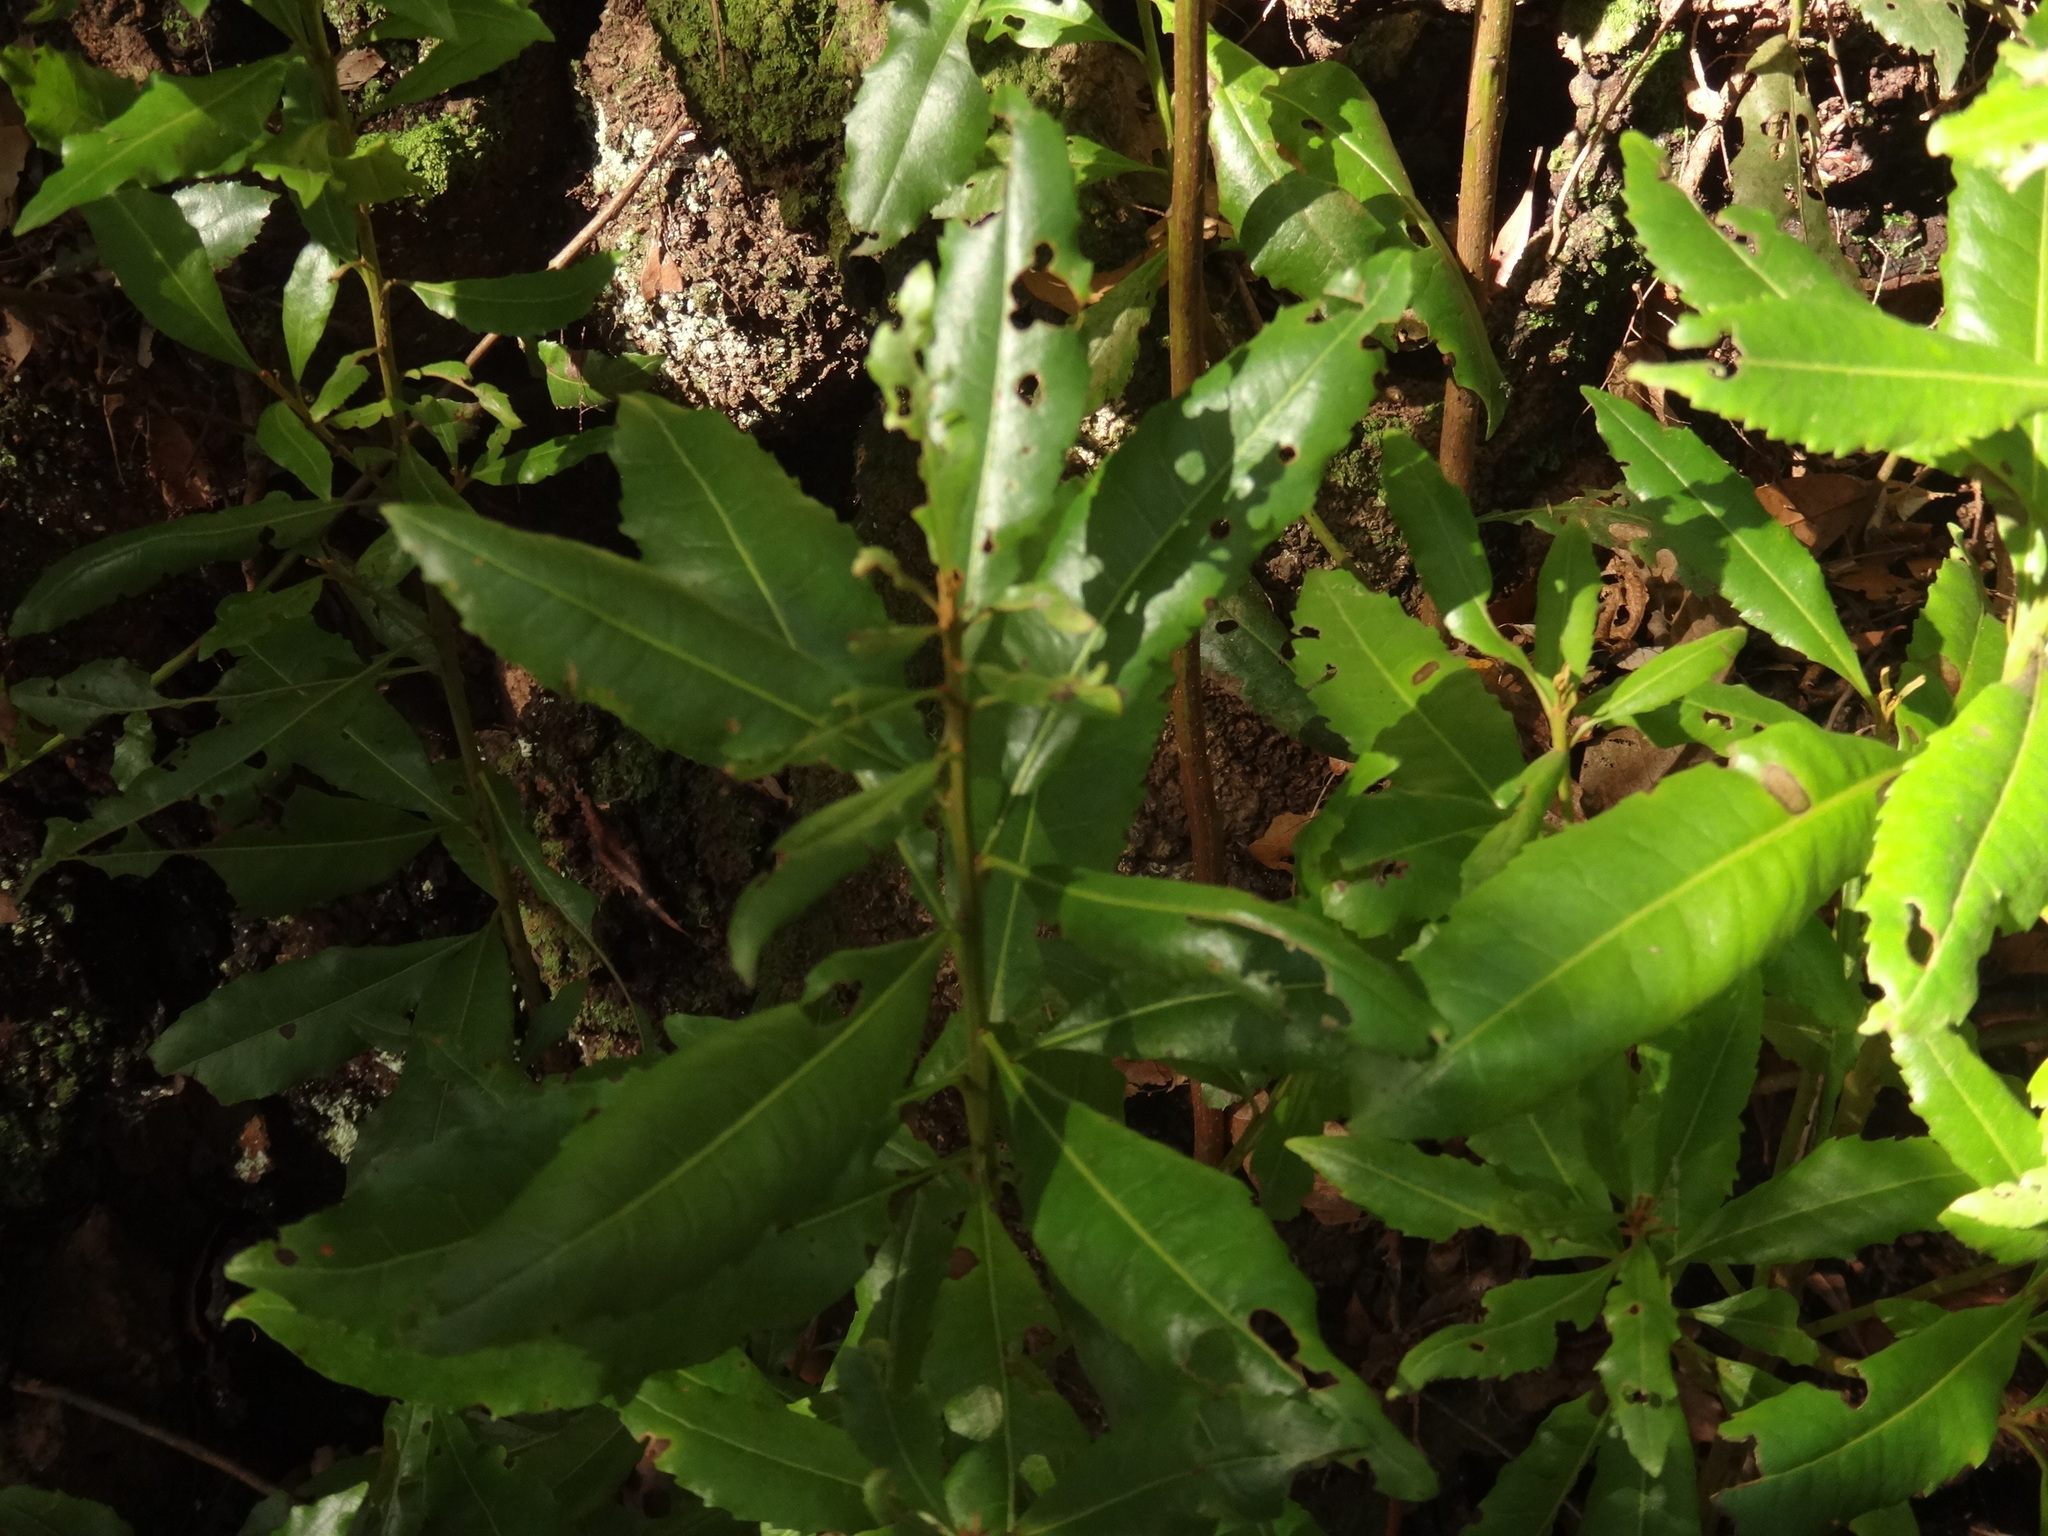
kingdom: Plantae
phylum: Tracheophyta
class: Magnoliopsida
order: Fagales
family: Myricaceae
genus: Morella
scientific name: Morella faya
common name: Firetree
